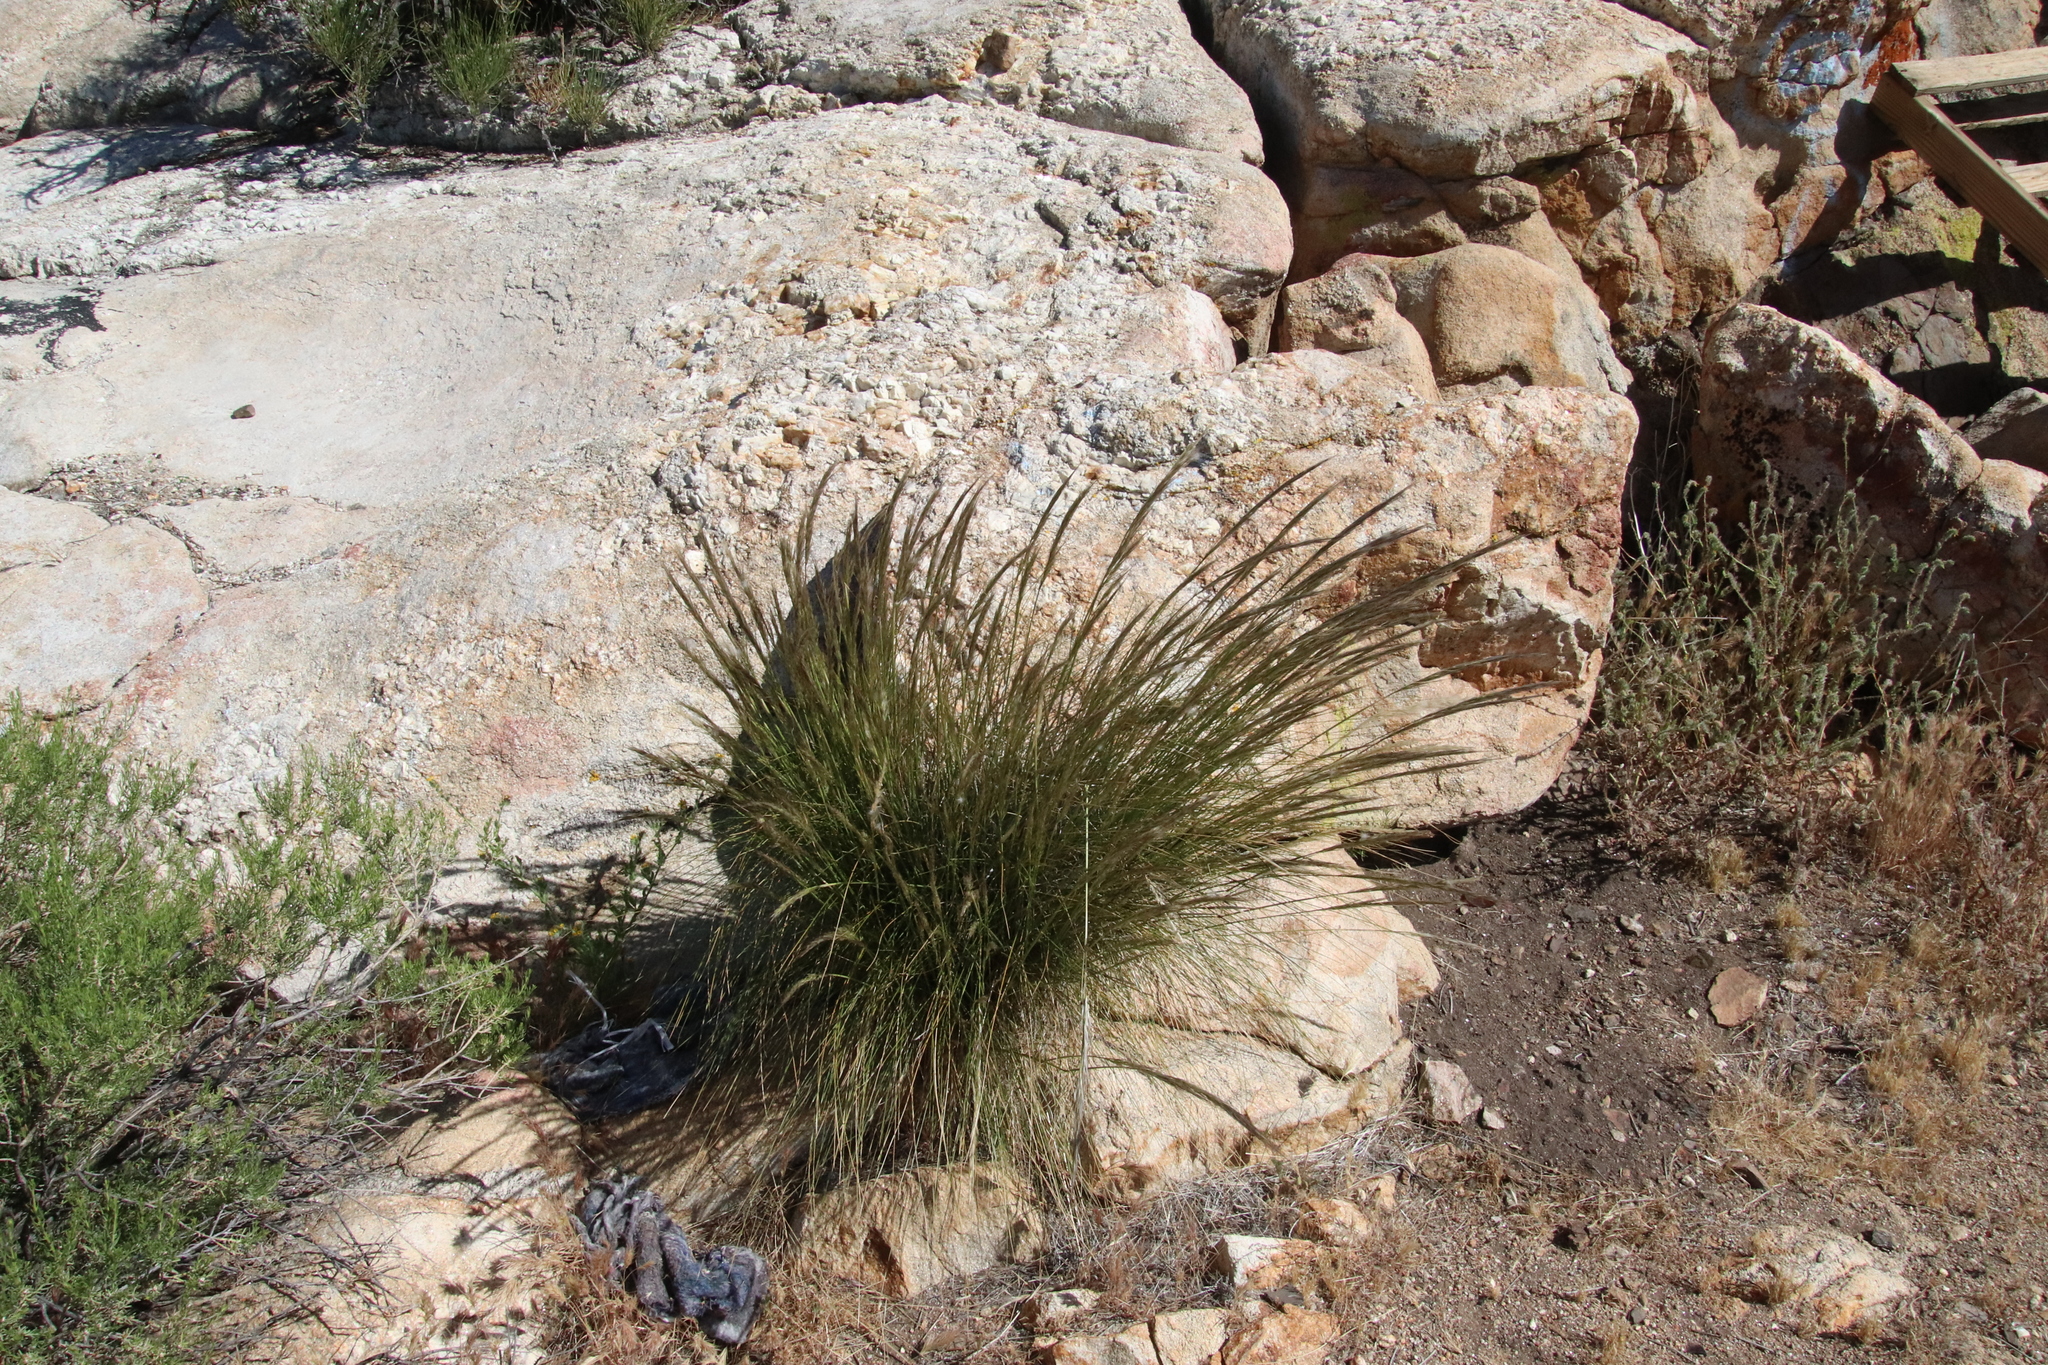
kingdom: Plantae
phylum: Tracheophyta
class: Liliopsida
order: Poales
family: Poaceae
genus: Pappostipa
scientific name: Pappostipa speciosa
